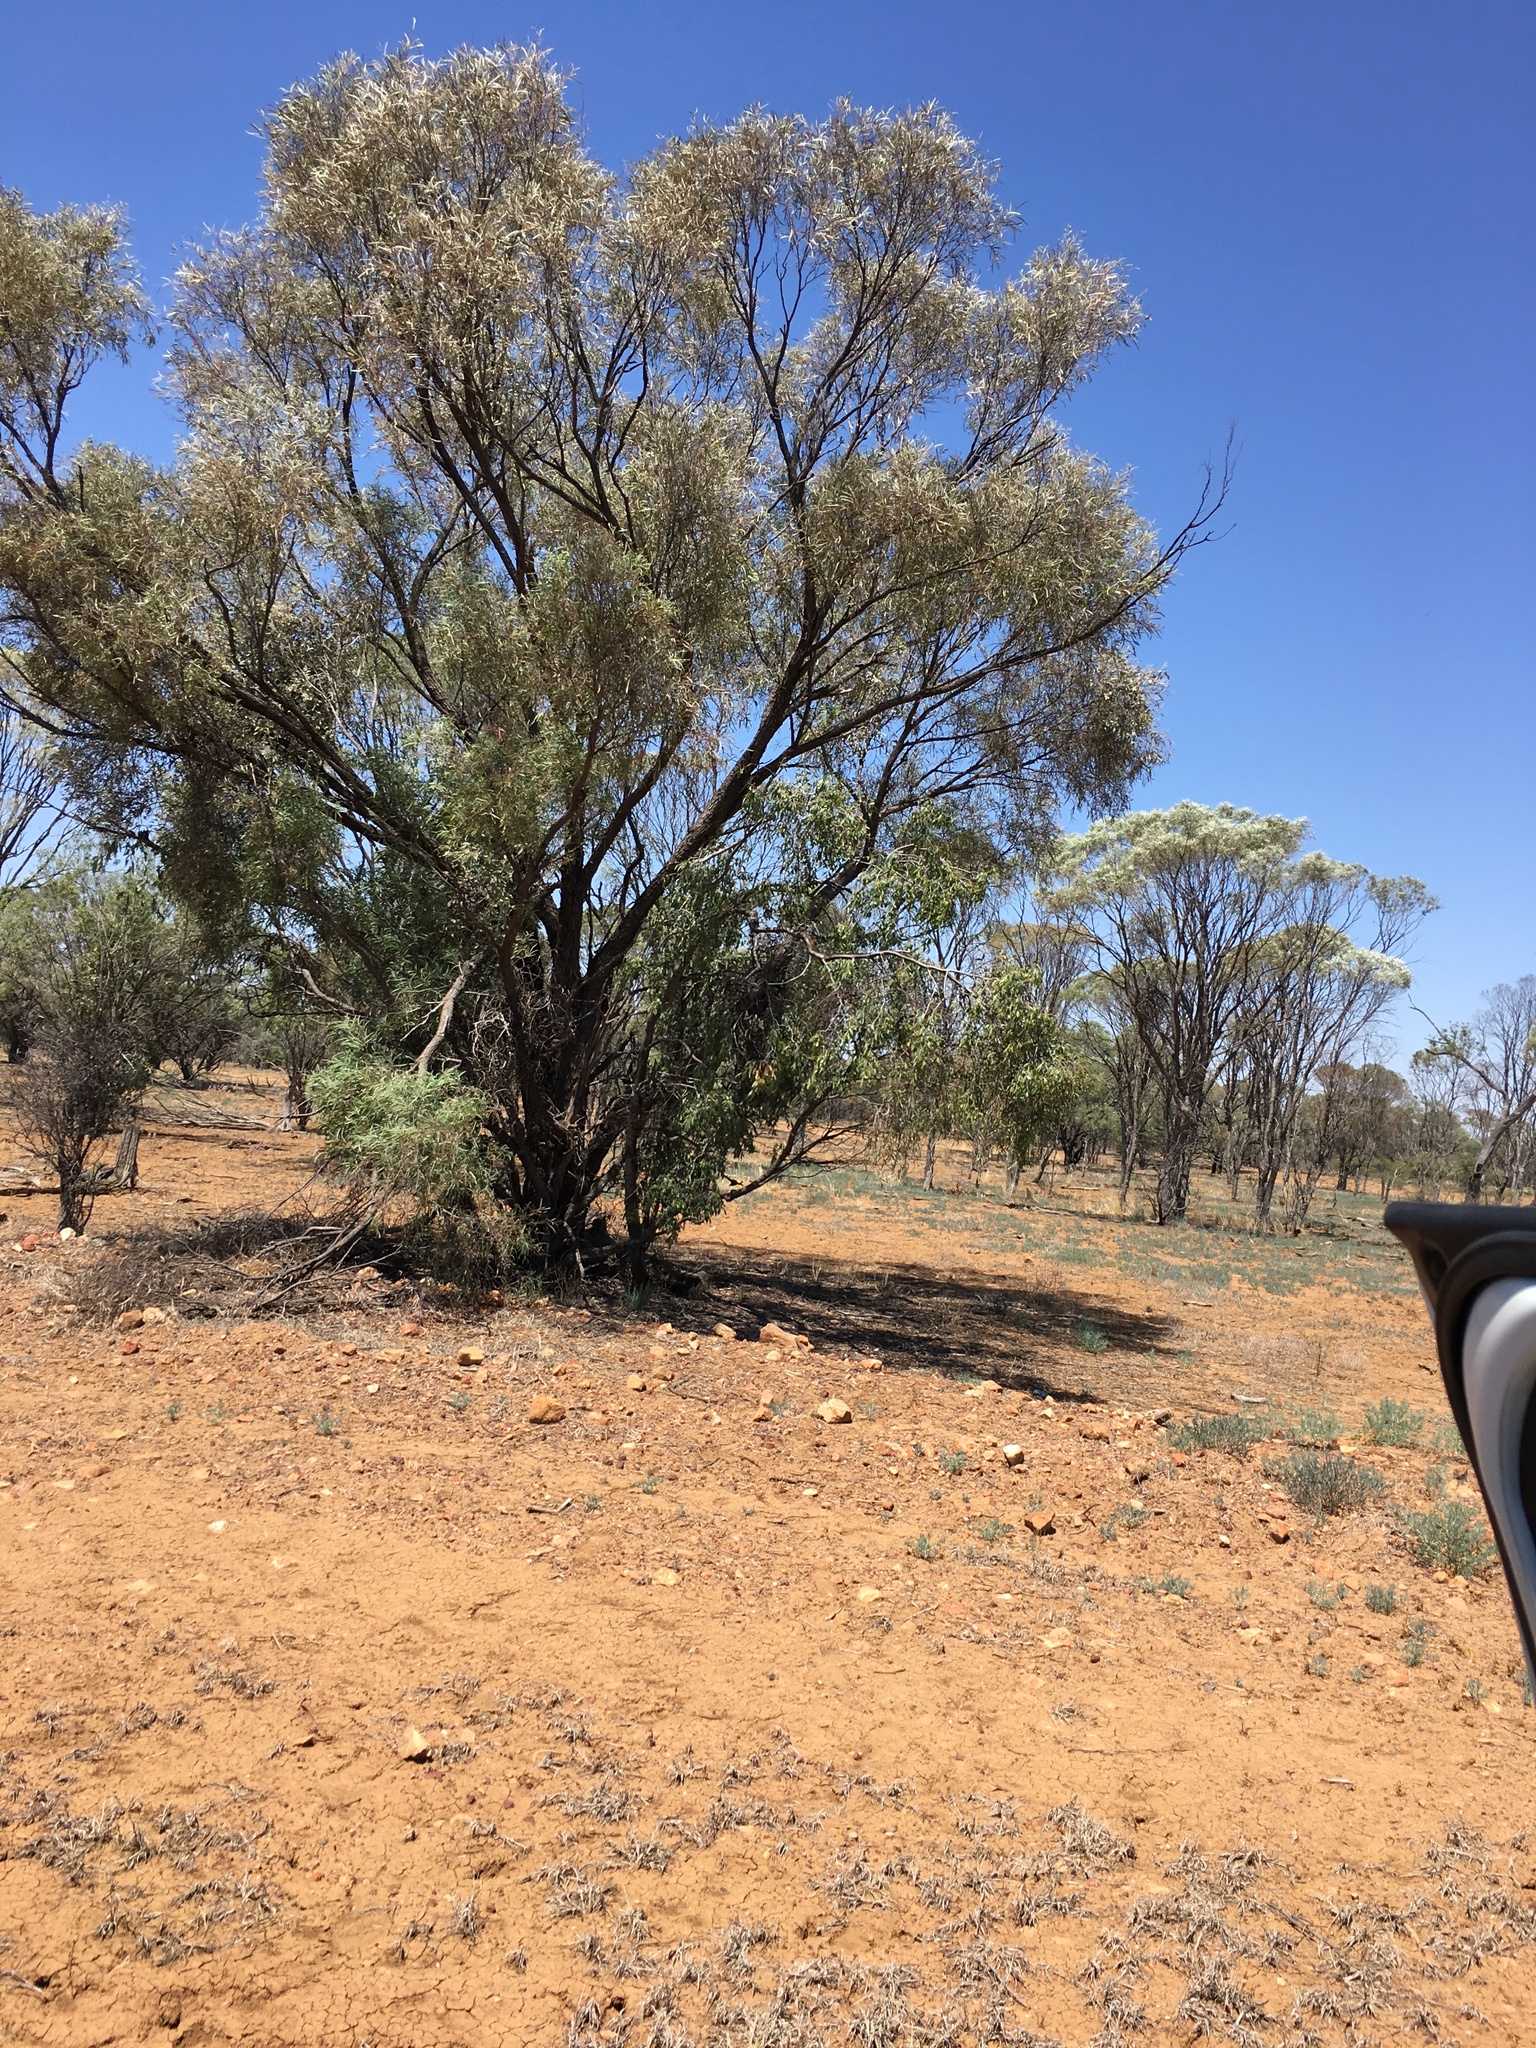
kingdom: Plantae
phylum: Tracheophyta
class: Magnoliopsida
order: Santalales
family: Santalaceae
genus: Santalum
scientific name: Santalum lanceolatum
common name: Ankwerley
